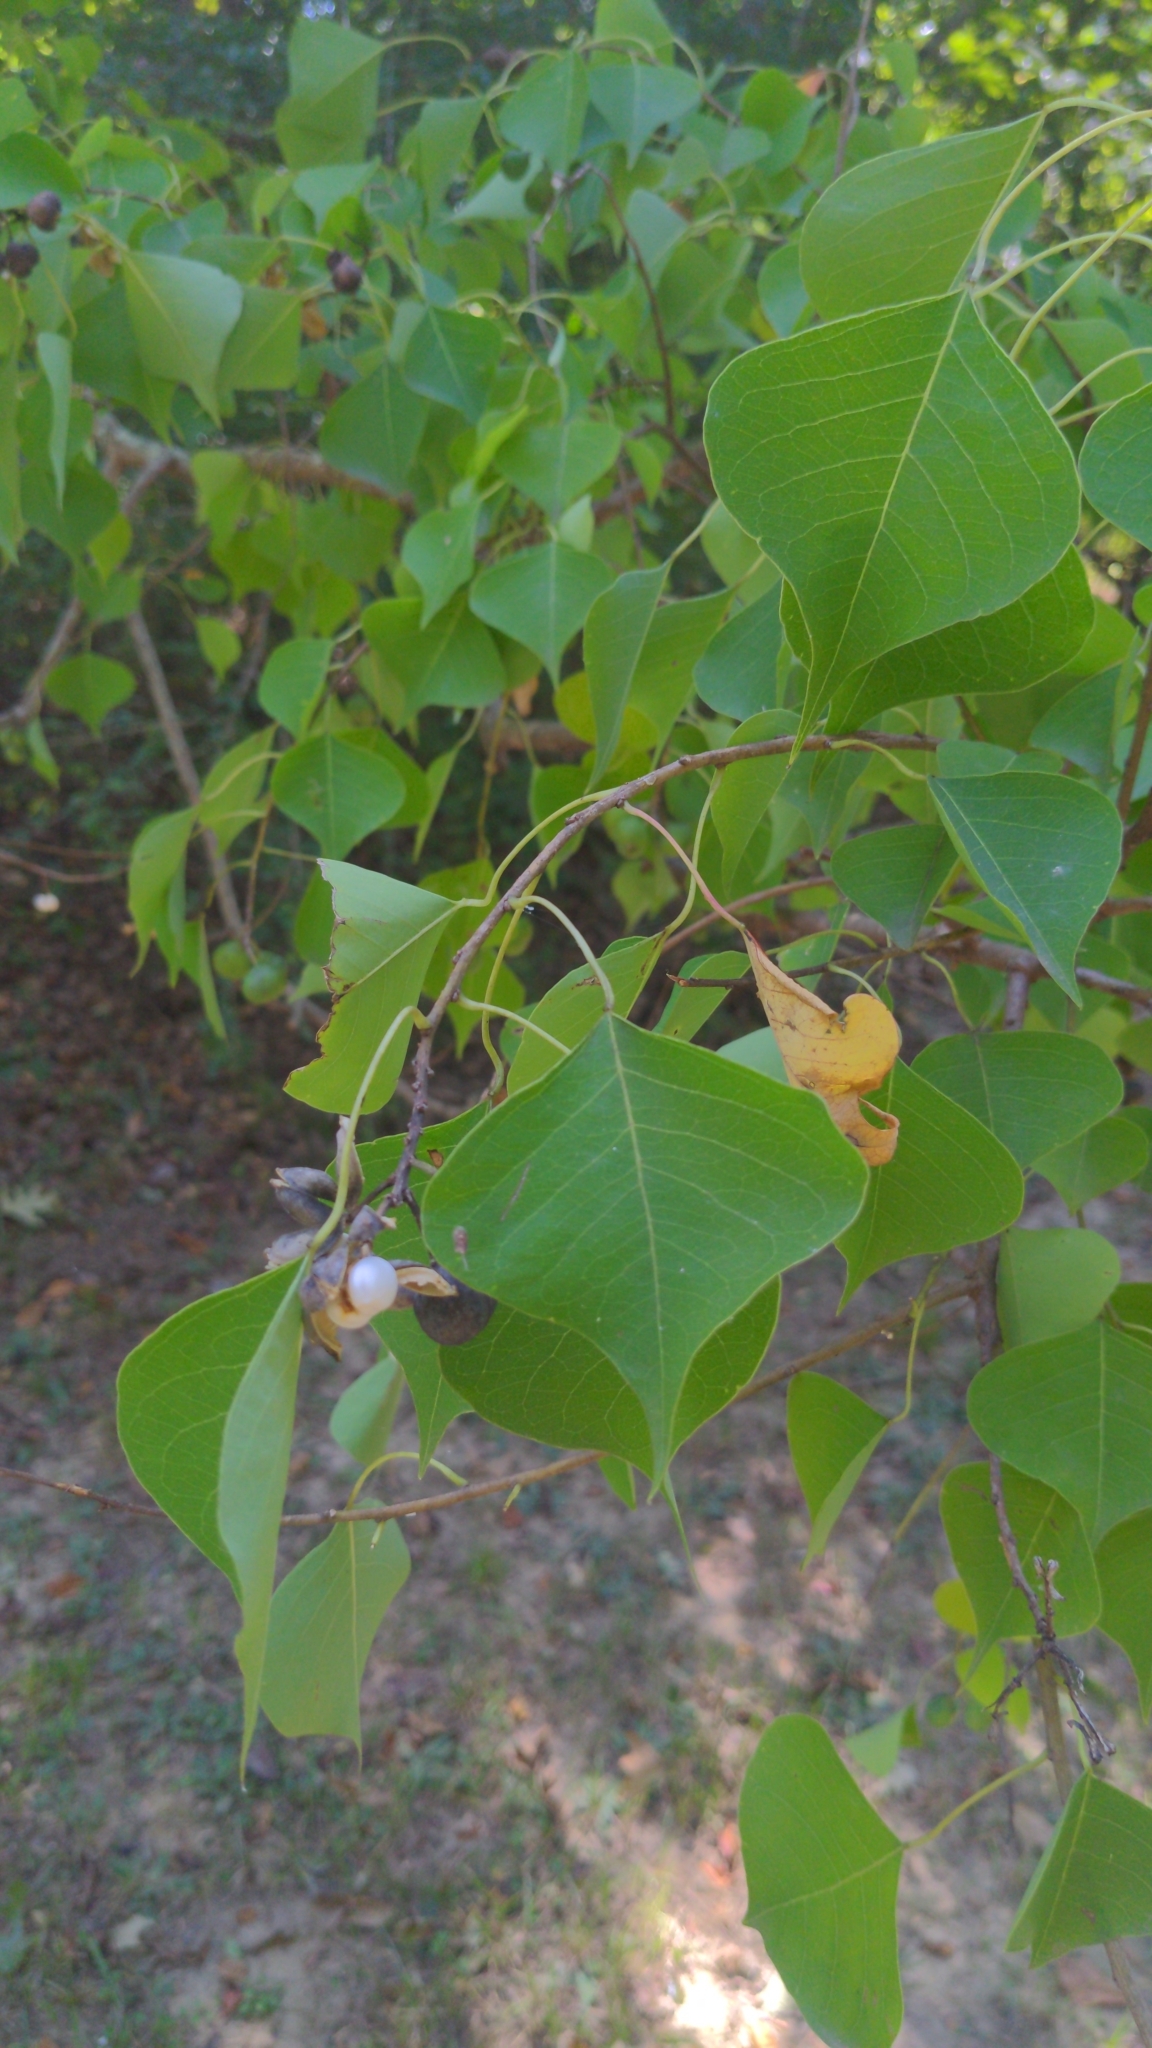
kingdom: Plantae
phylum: Tracheophyta
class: Magnoliopsida
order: Malpighiales
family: Euphorbiaceae
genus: Triadica
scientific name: Triadica sebifera
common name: Chinese tallow
